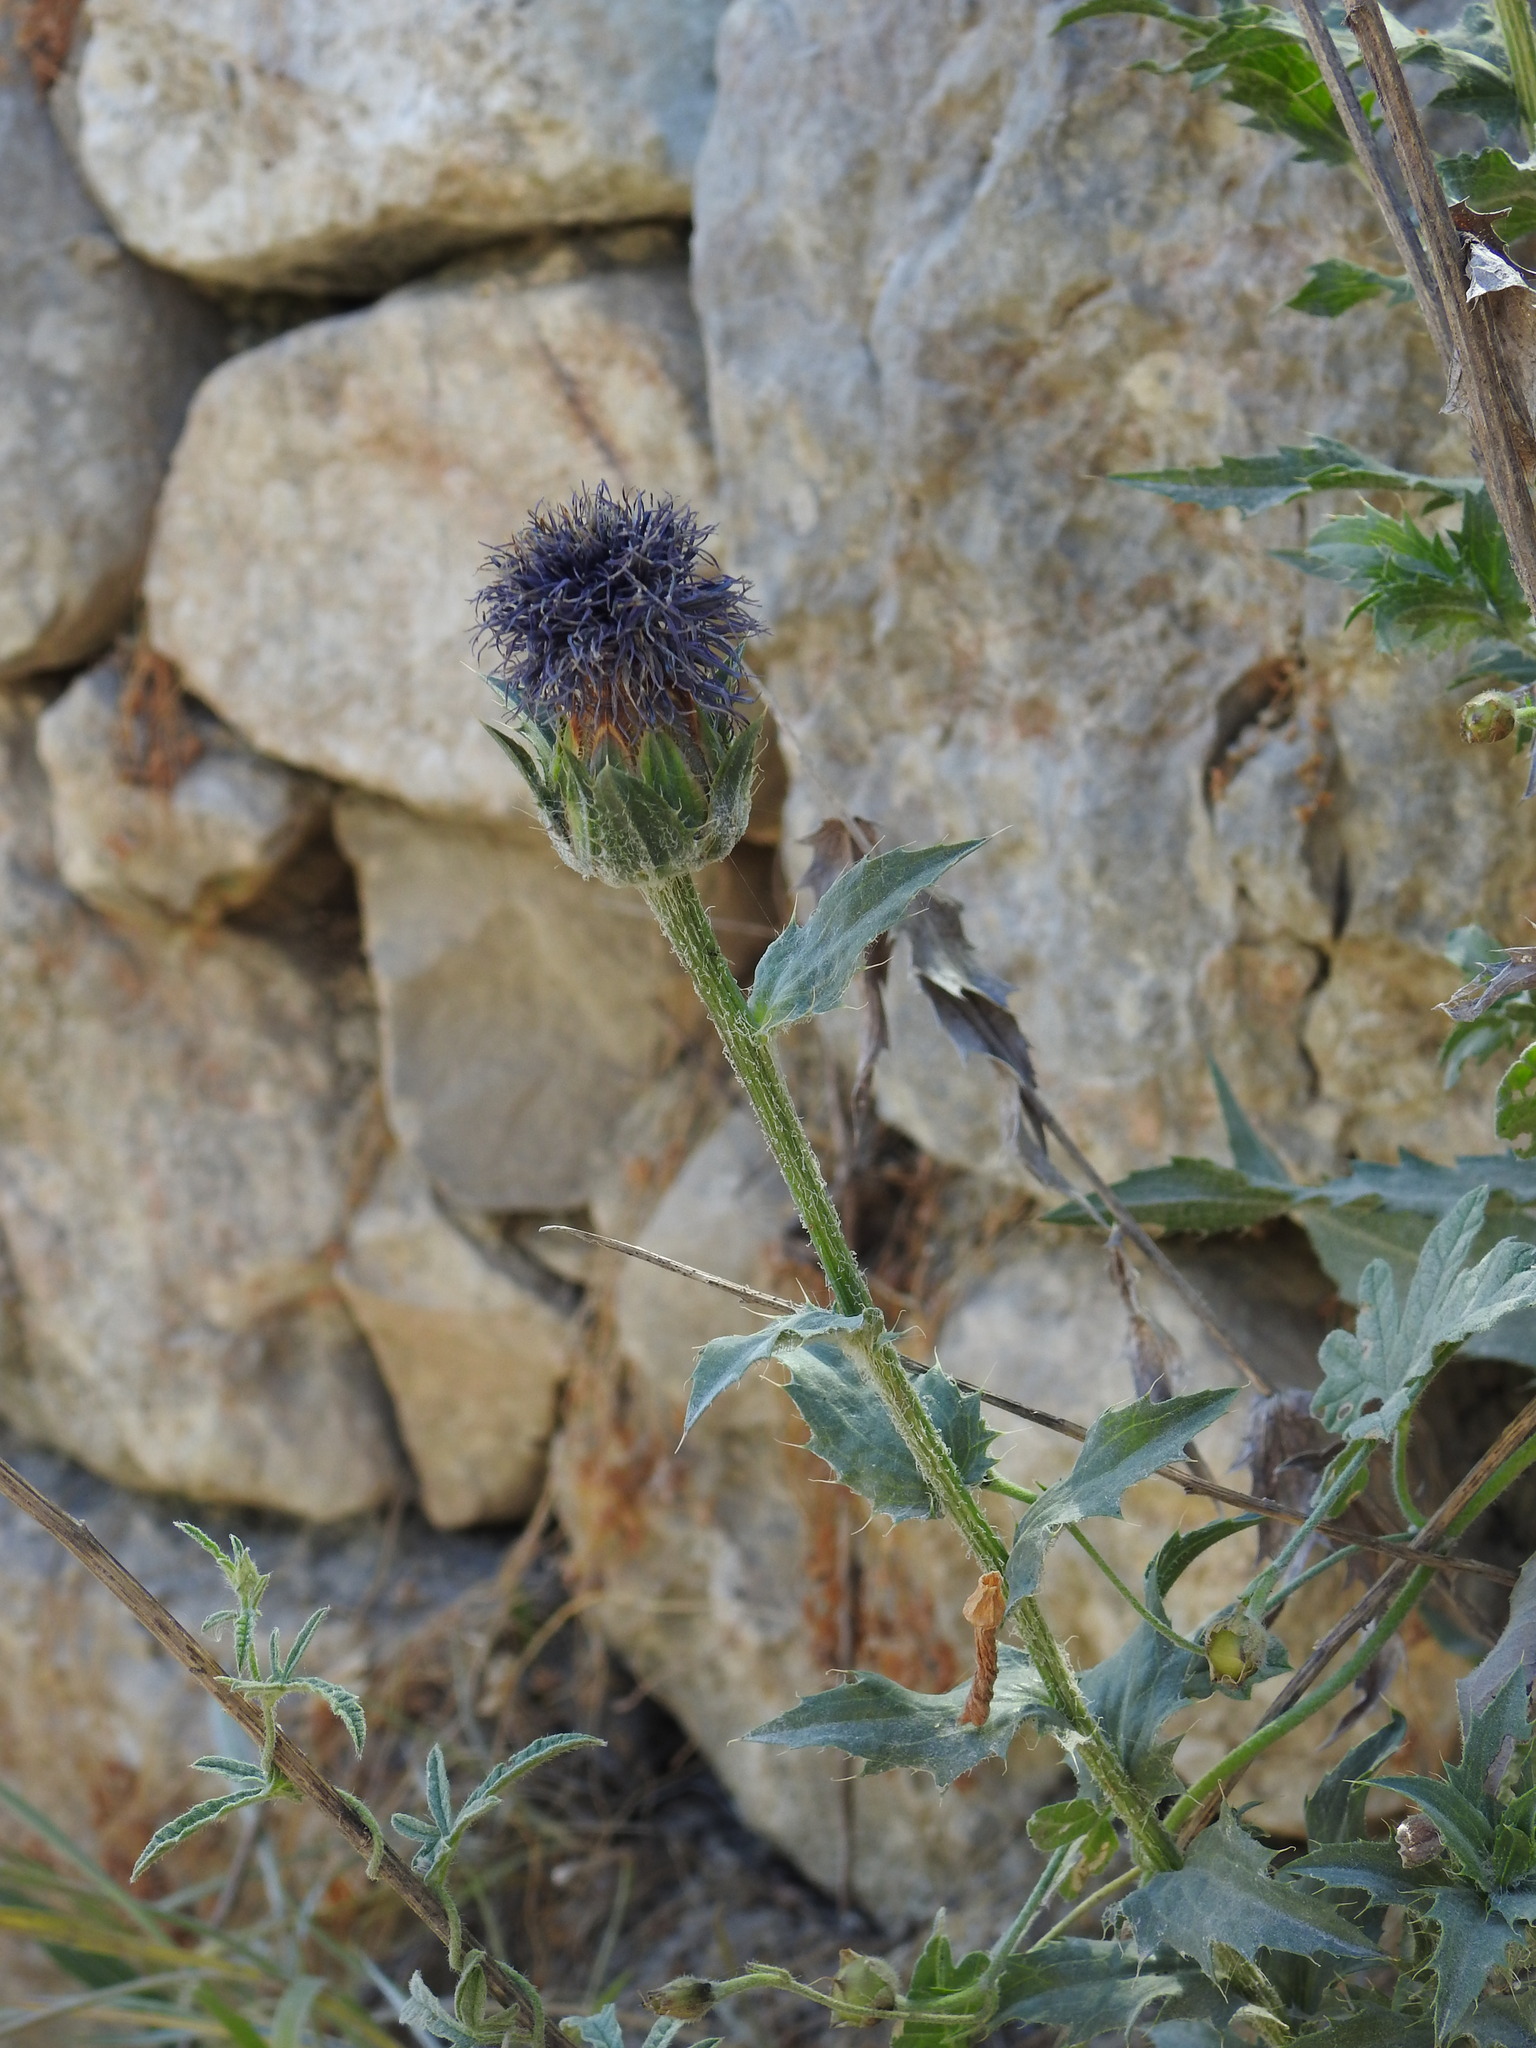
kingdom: Plantae
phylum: Tracheophyta
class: Magnoliopsida
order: Asterales
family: Asteraceae
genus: Carduncellus
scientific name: Carduncellus caeruleus
